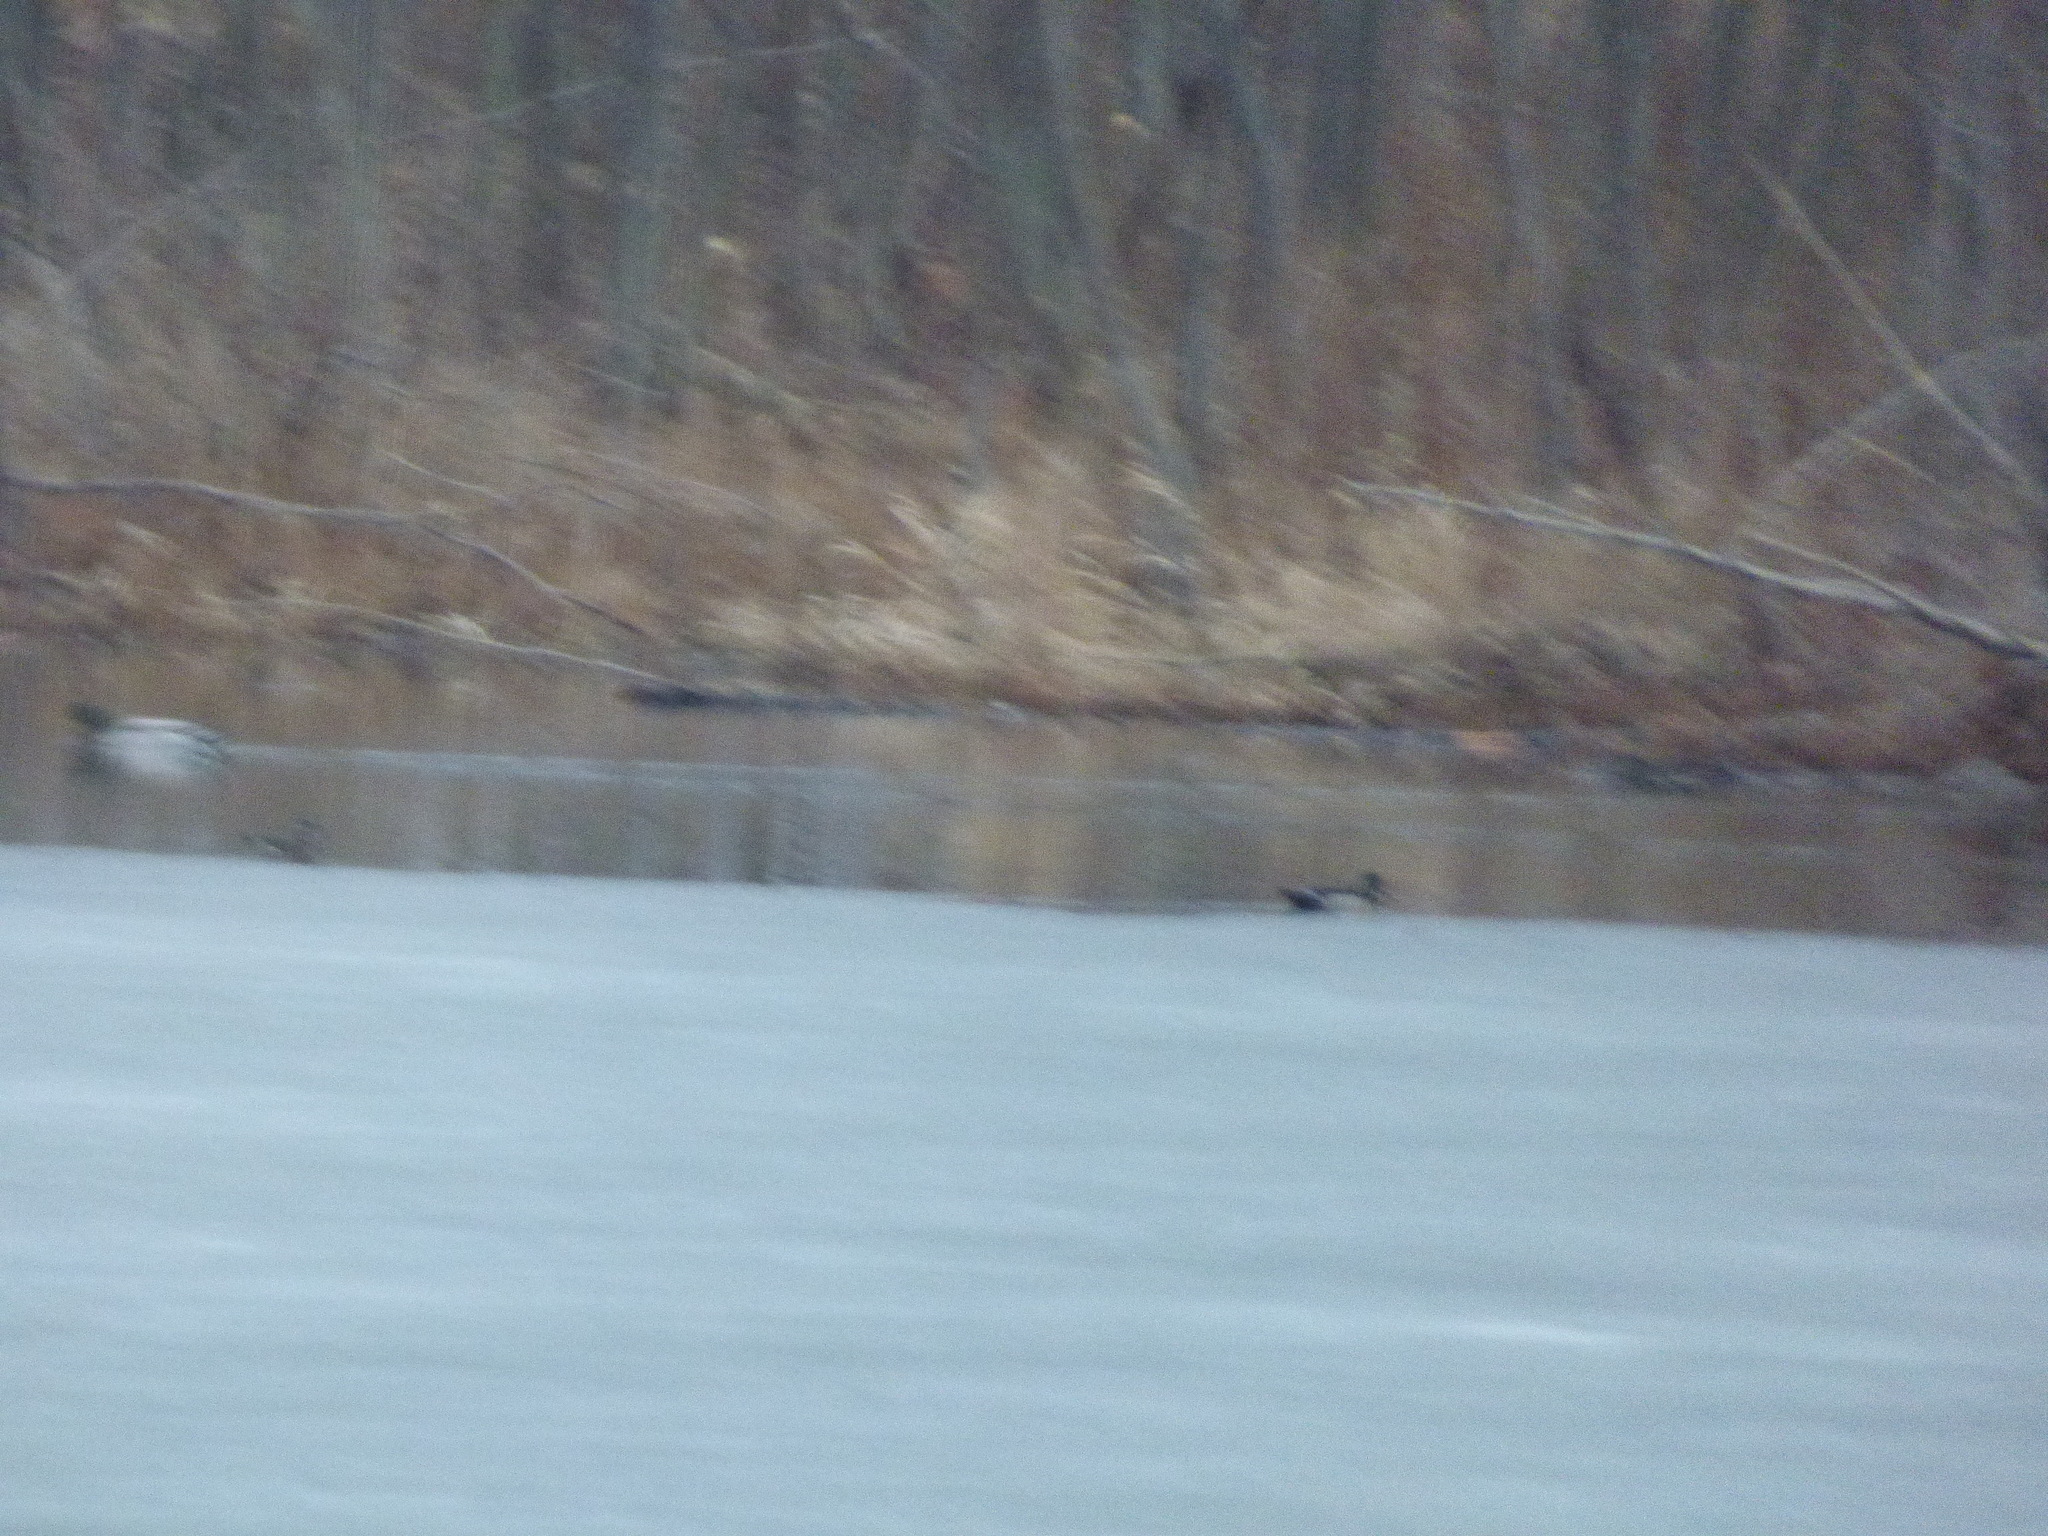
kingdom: Animalia
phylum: Chordata
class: Aves
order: Anseriformes
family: Anatidae
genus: Aix
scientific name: Aix sponsa
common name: Wood duck
